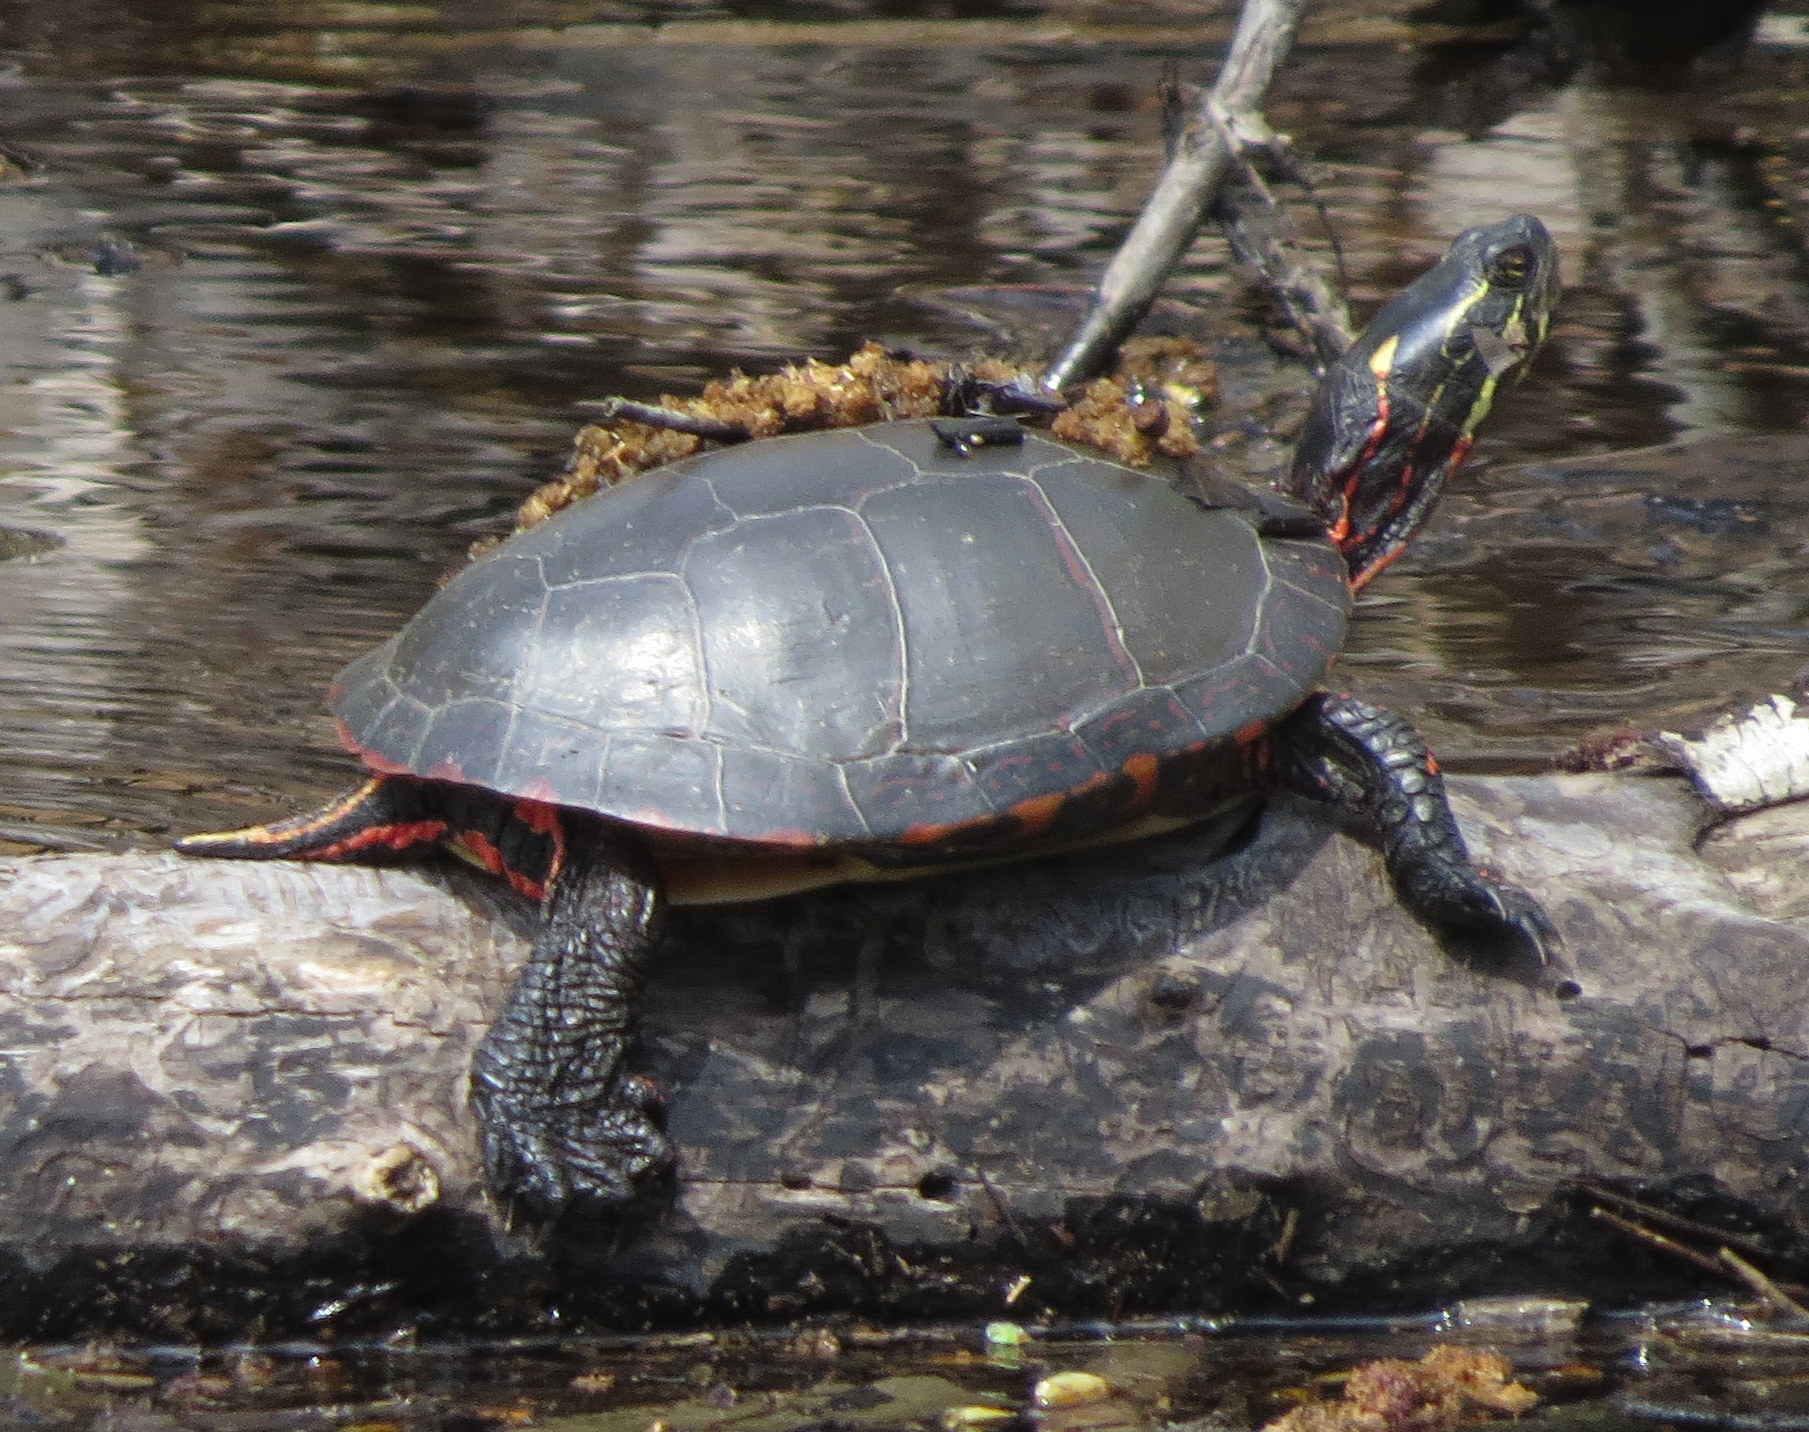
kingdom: Animalia
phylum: Chordata
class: Testudines
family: Emydidae
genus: Chrysemys
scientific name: Chrysemys picta
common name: Painted turtle
